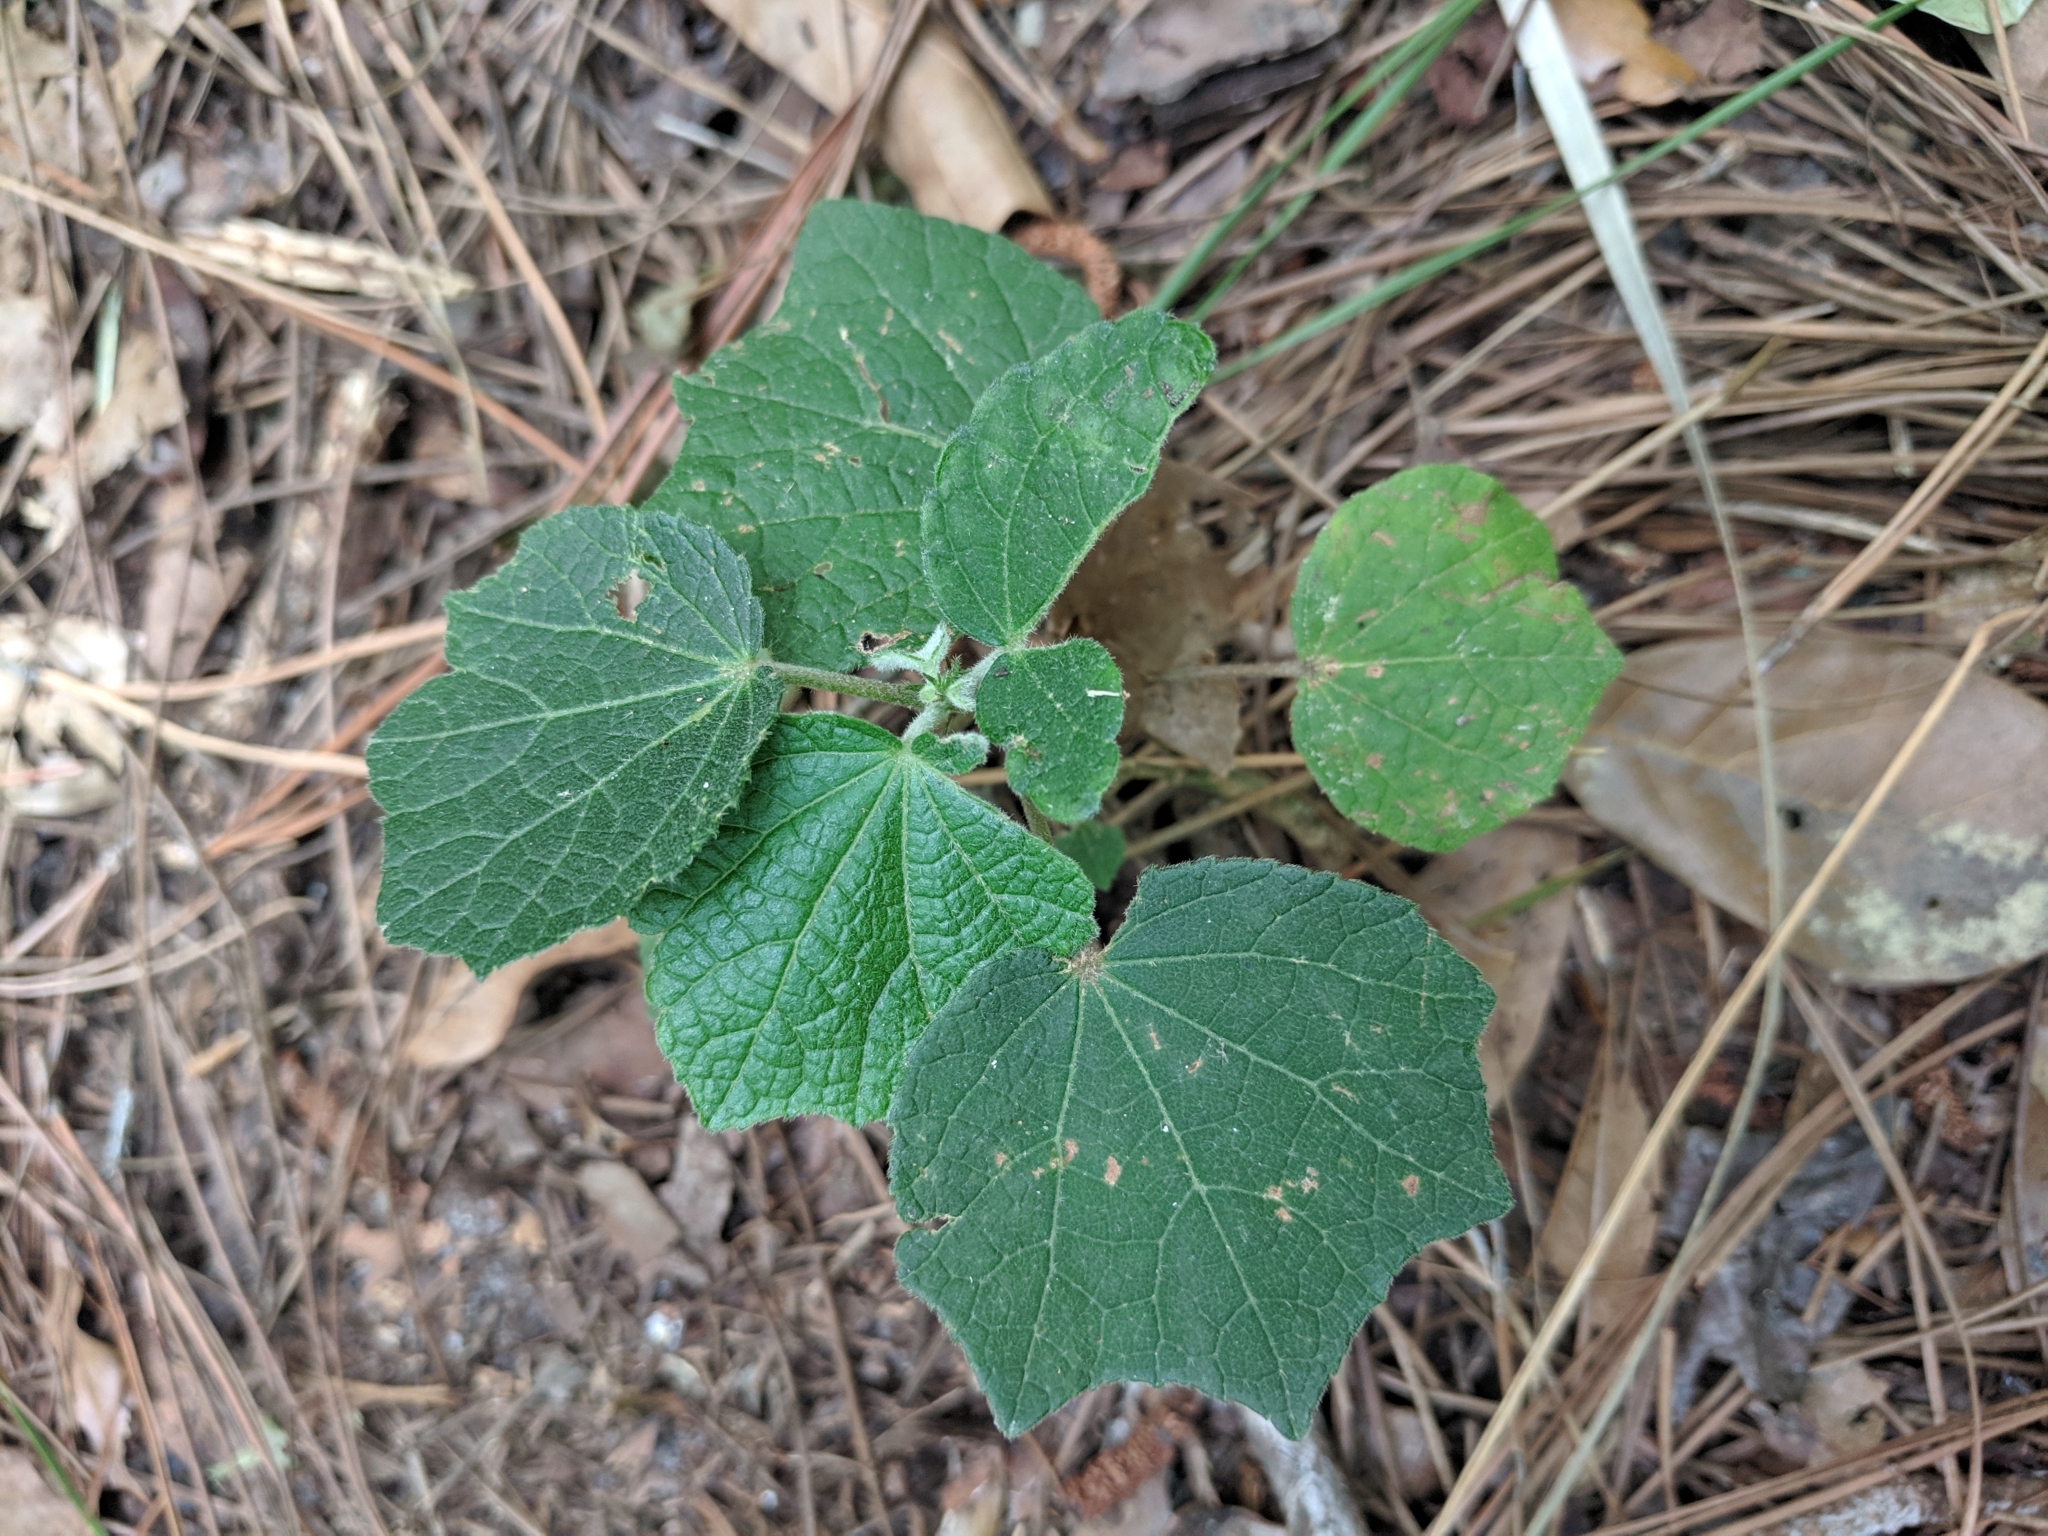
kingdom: Plantae
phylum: Tracheophyta
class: Magnoliopsida
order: Malvales
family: Malvaceae
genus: Urena
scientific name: Urena lobata
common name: Caesarweed
